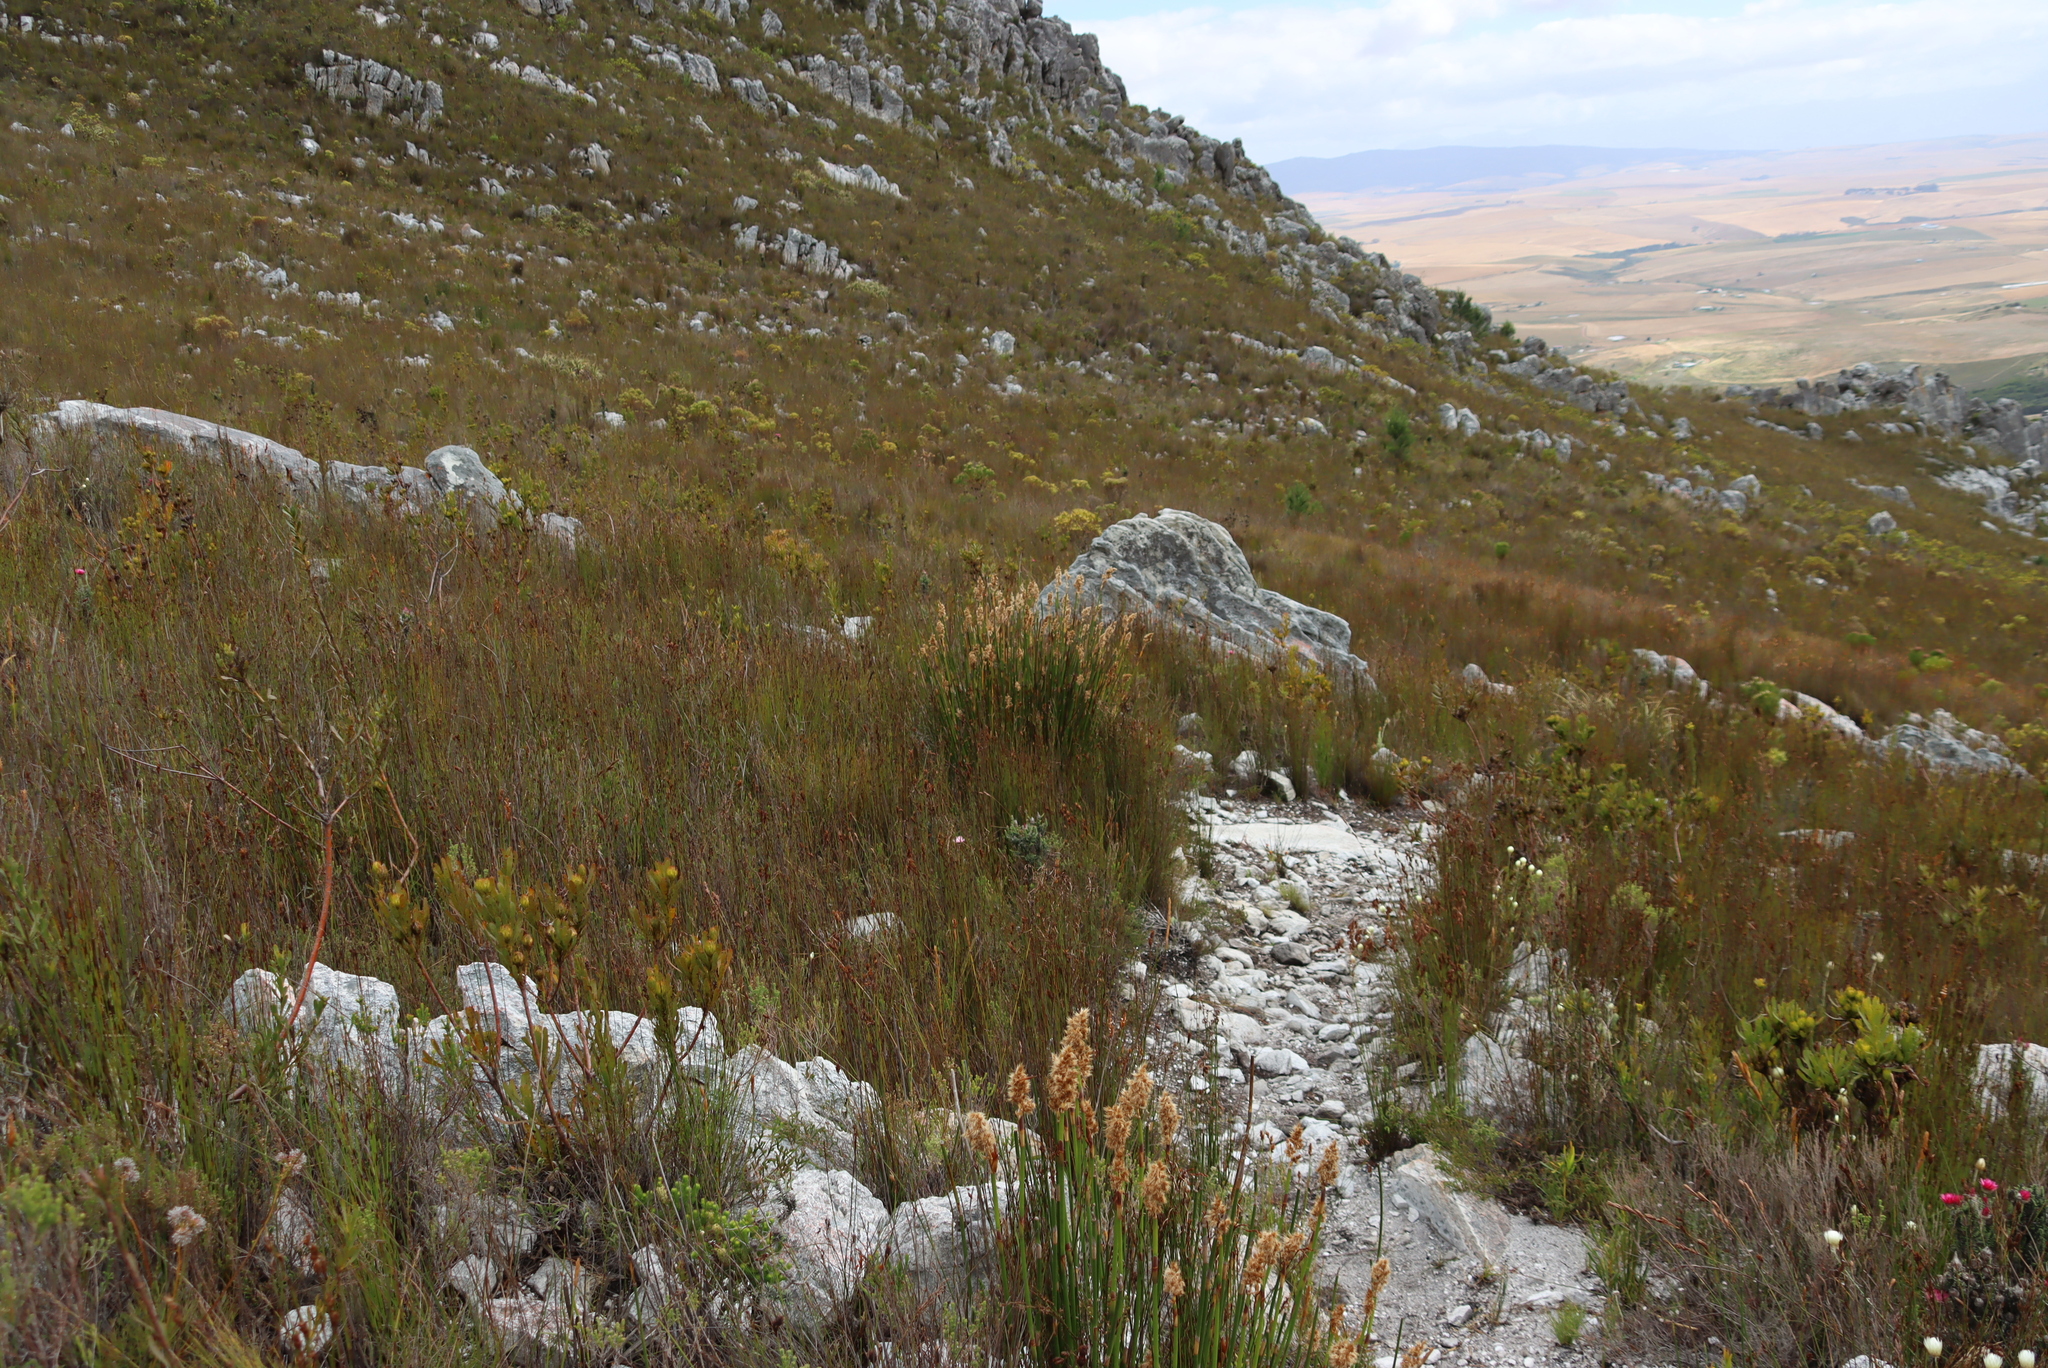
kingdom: Plantae
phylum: Tracheophyta
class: Liliopsida
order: Poales
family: Restionaceae
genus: Ceratocaryum
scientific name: Ceratocaryum caespitosum
